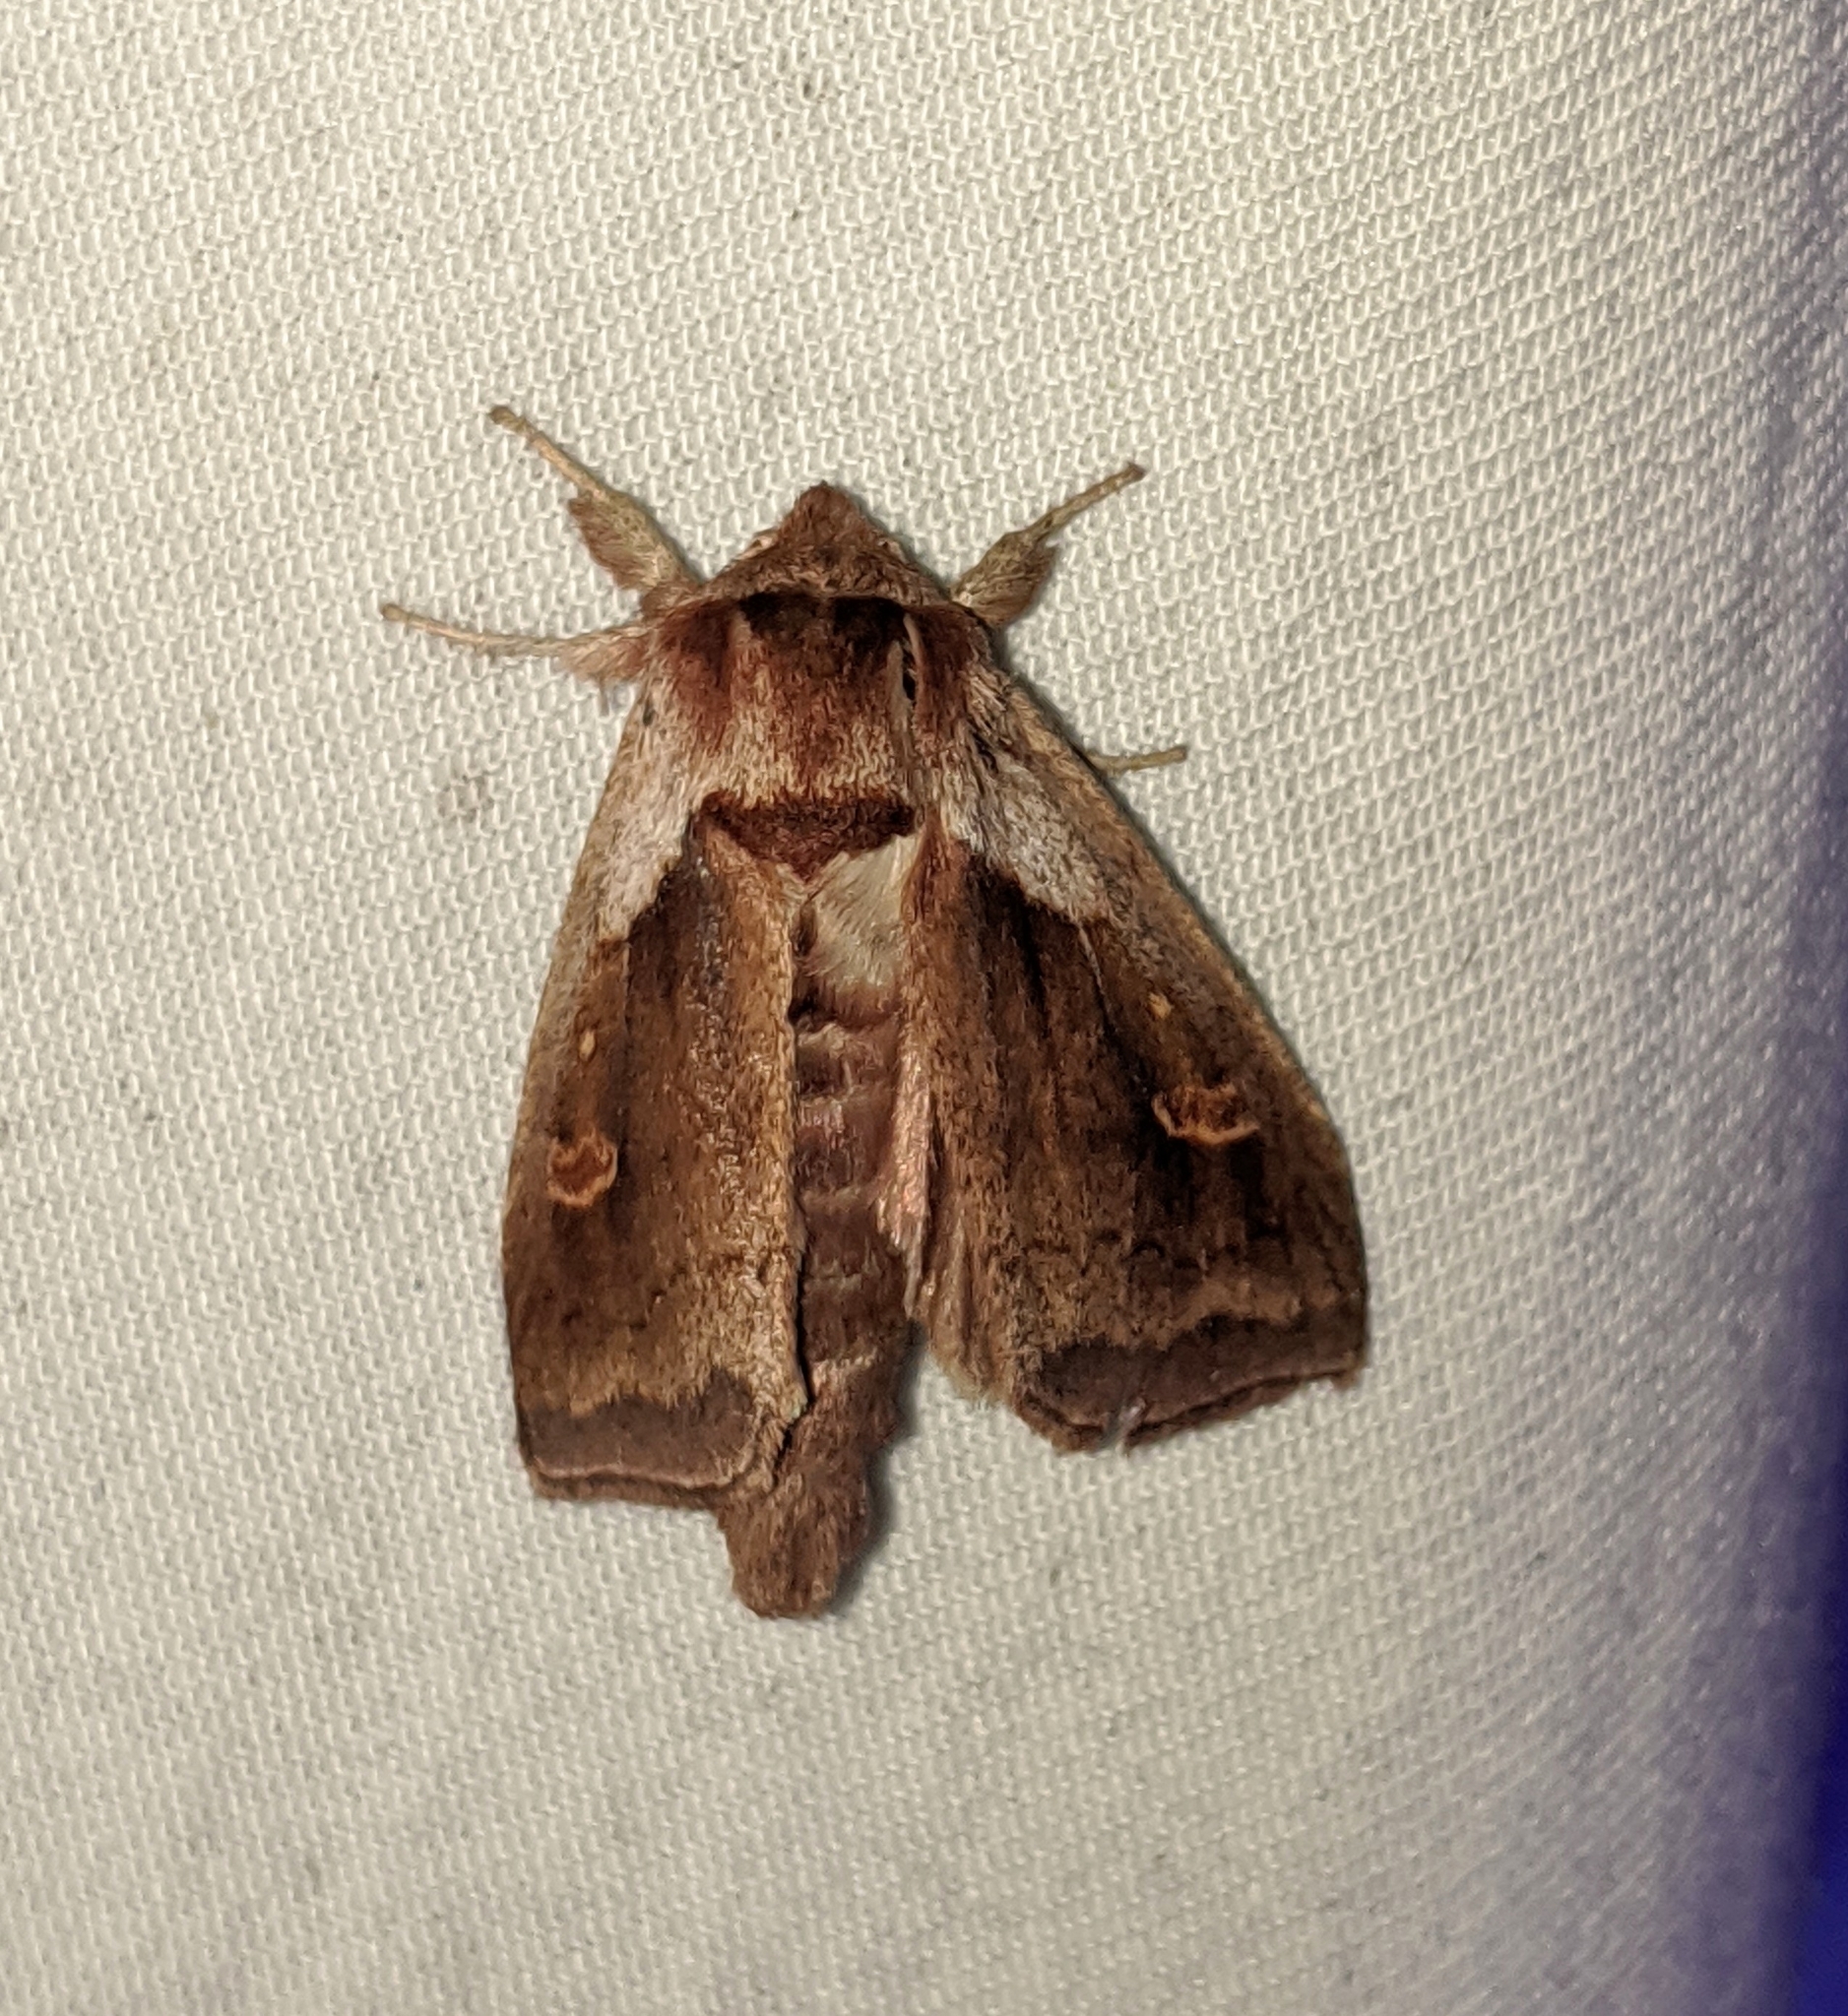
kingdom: Animalia
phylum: Arthropoda
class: Insecta
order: Lepidoptera
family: Noctuidae
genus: Bellura
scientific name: Bellura obliqua
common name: Cattail borer moth
